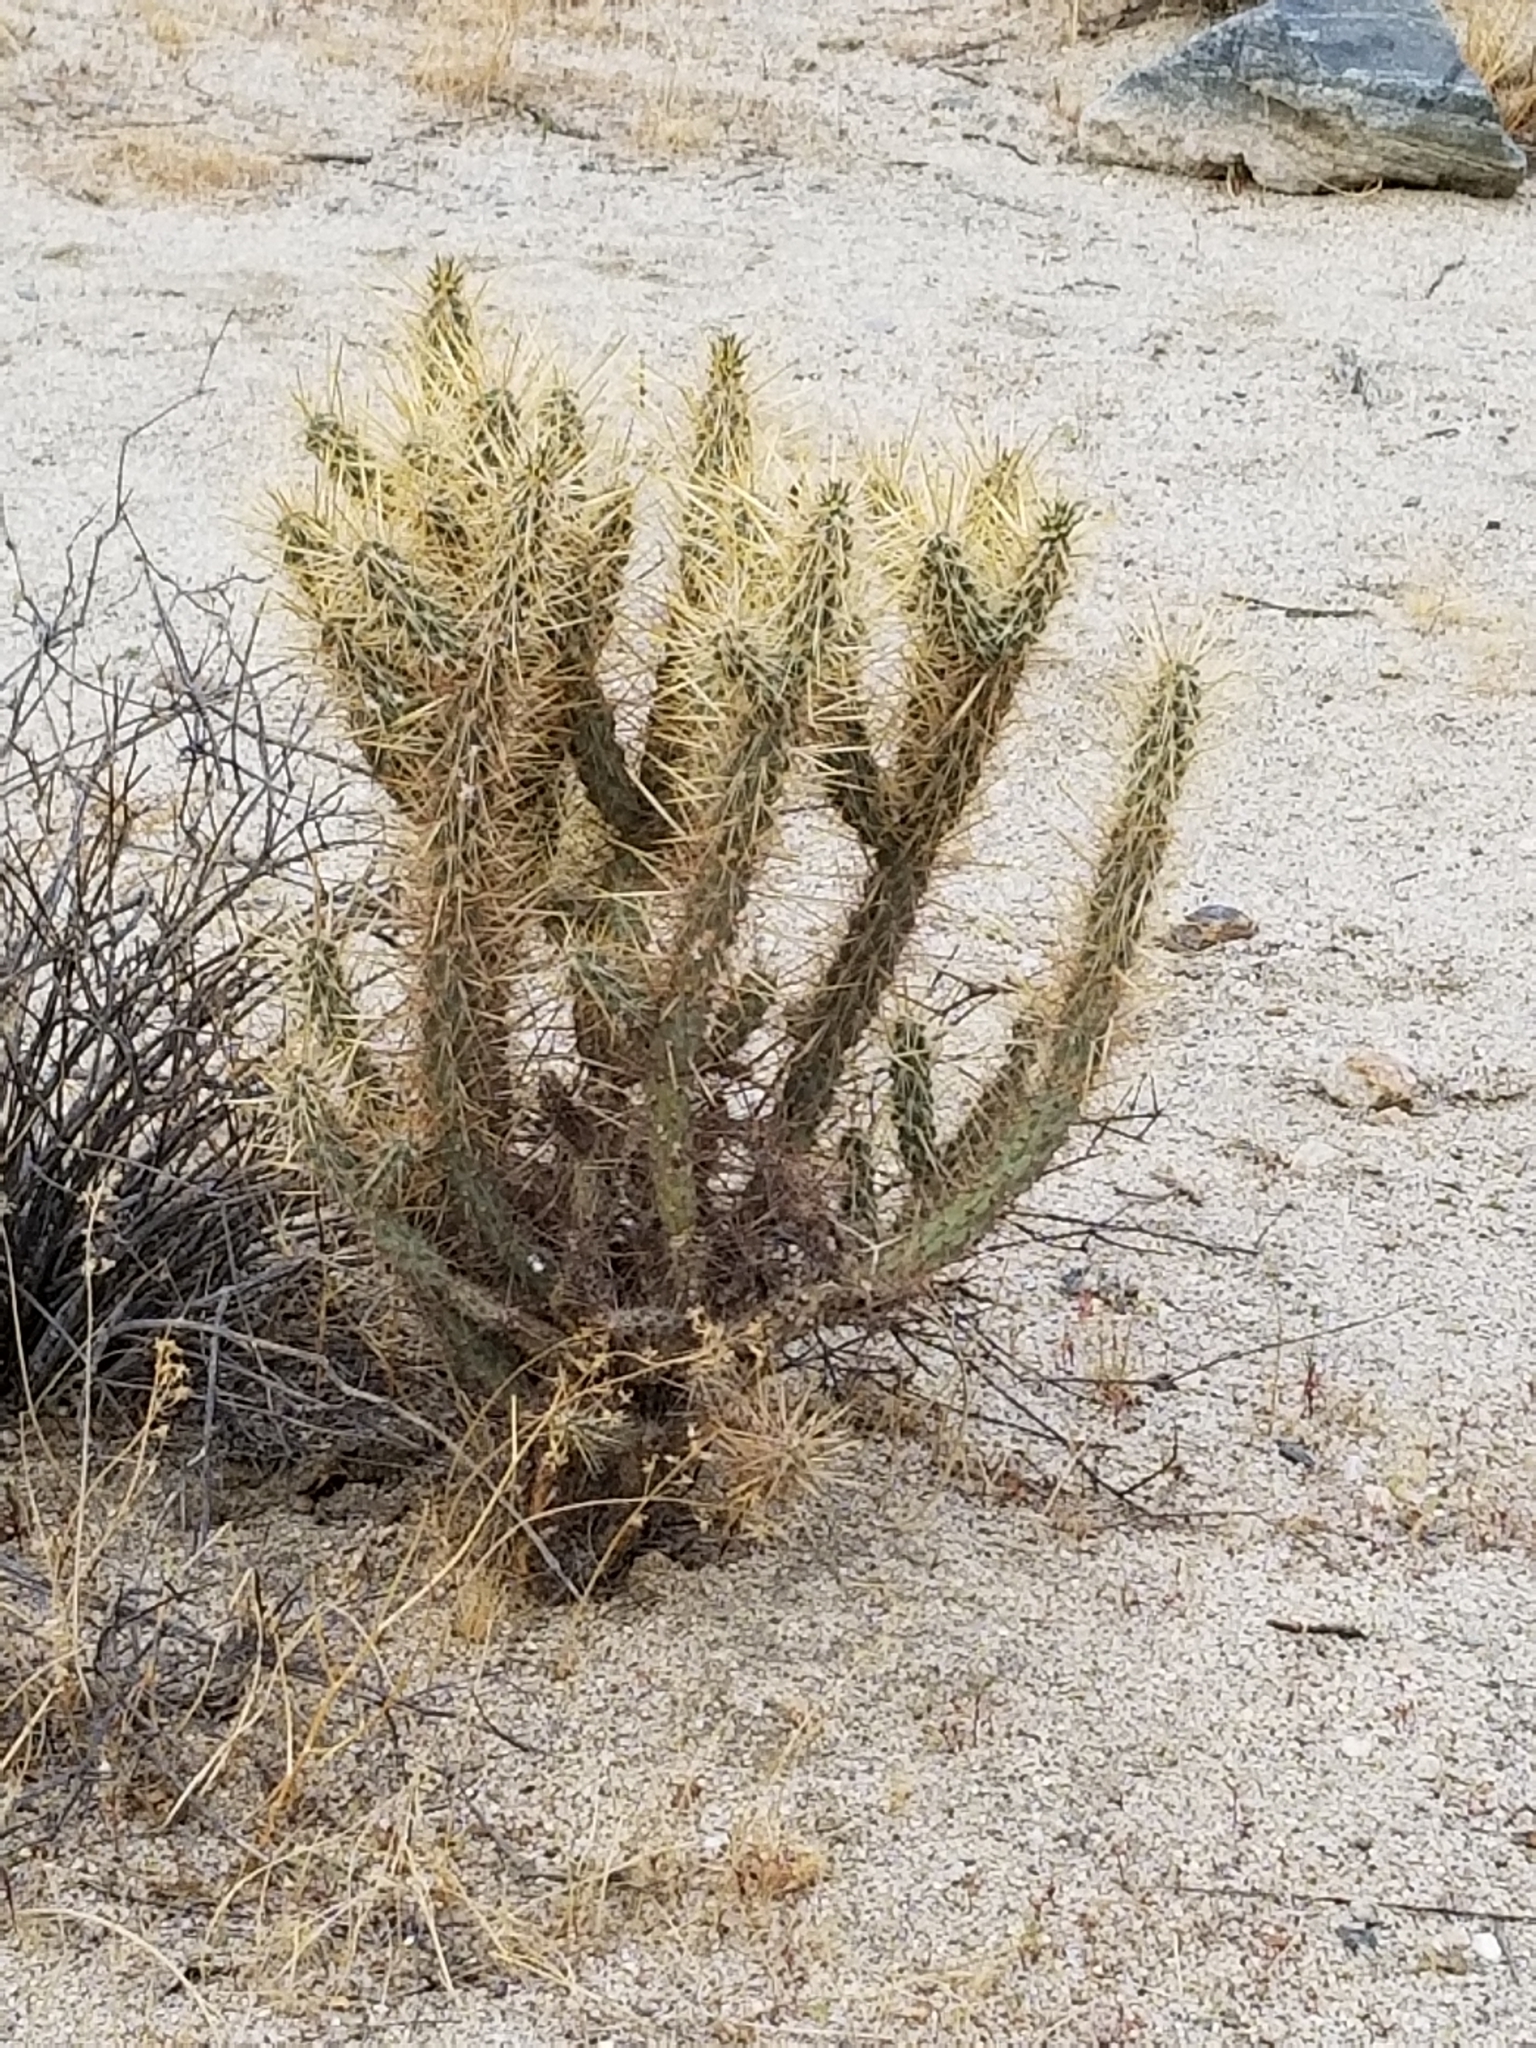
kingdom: Plantae
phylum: Tracheophyta
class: Magnoliopsida
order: Caryophyllales
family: Cactaceae
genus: Cylindropuntia
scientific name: Cylindropuntia ganderi
